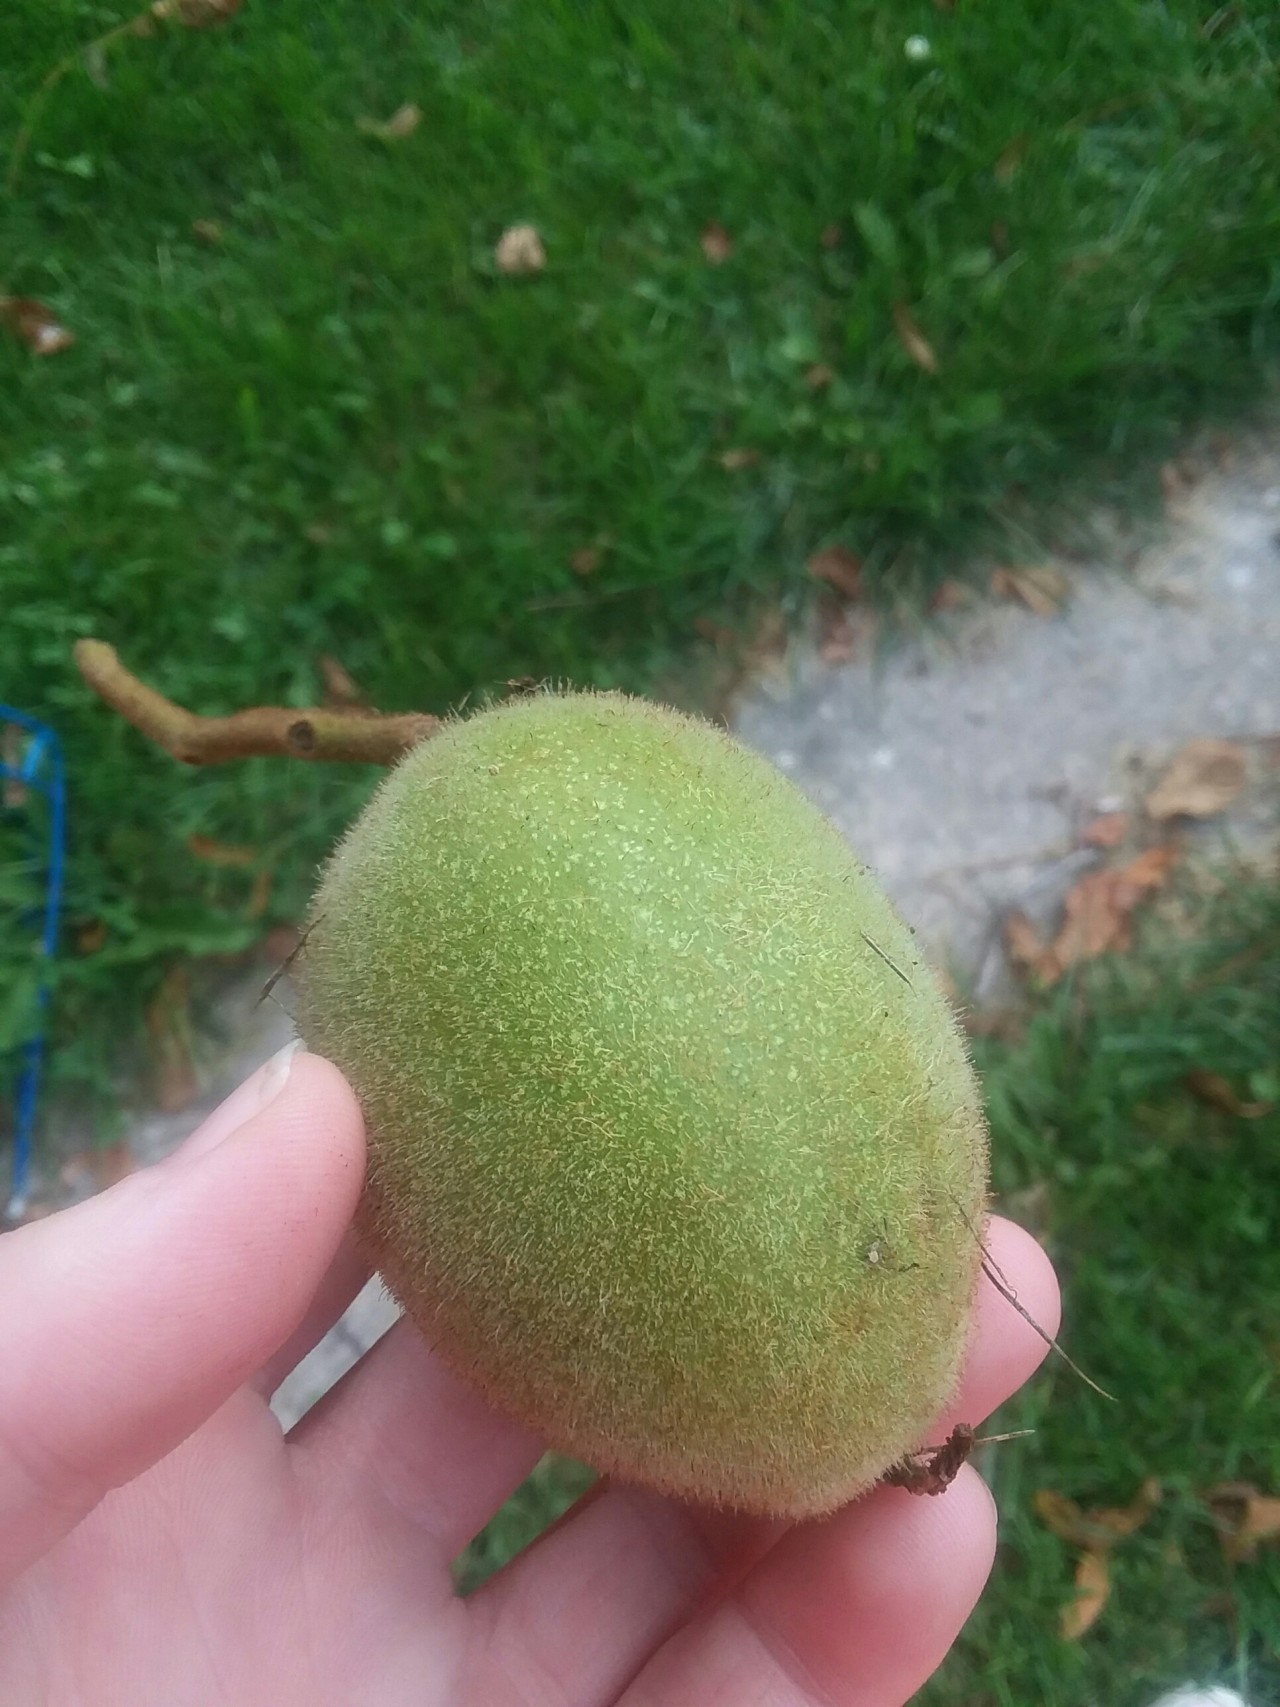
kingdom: Plantae
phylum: Tracheophyta
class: Magnoliopsida
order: Fagales
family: Juglandaceae
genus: Juglans
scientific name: Juglans cinerea
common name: Butternut
